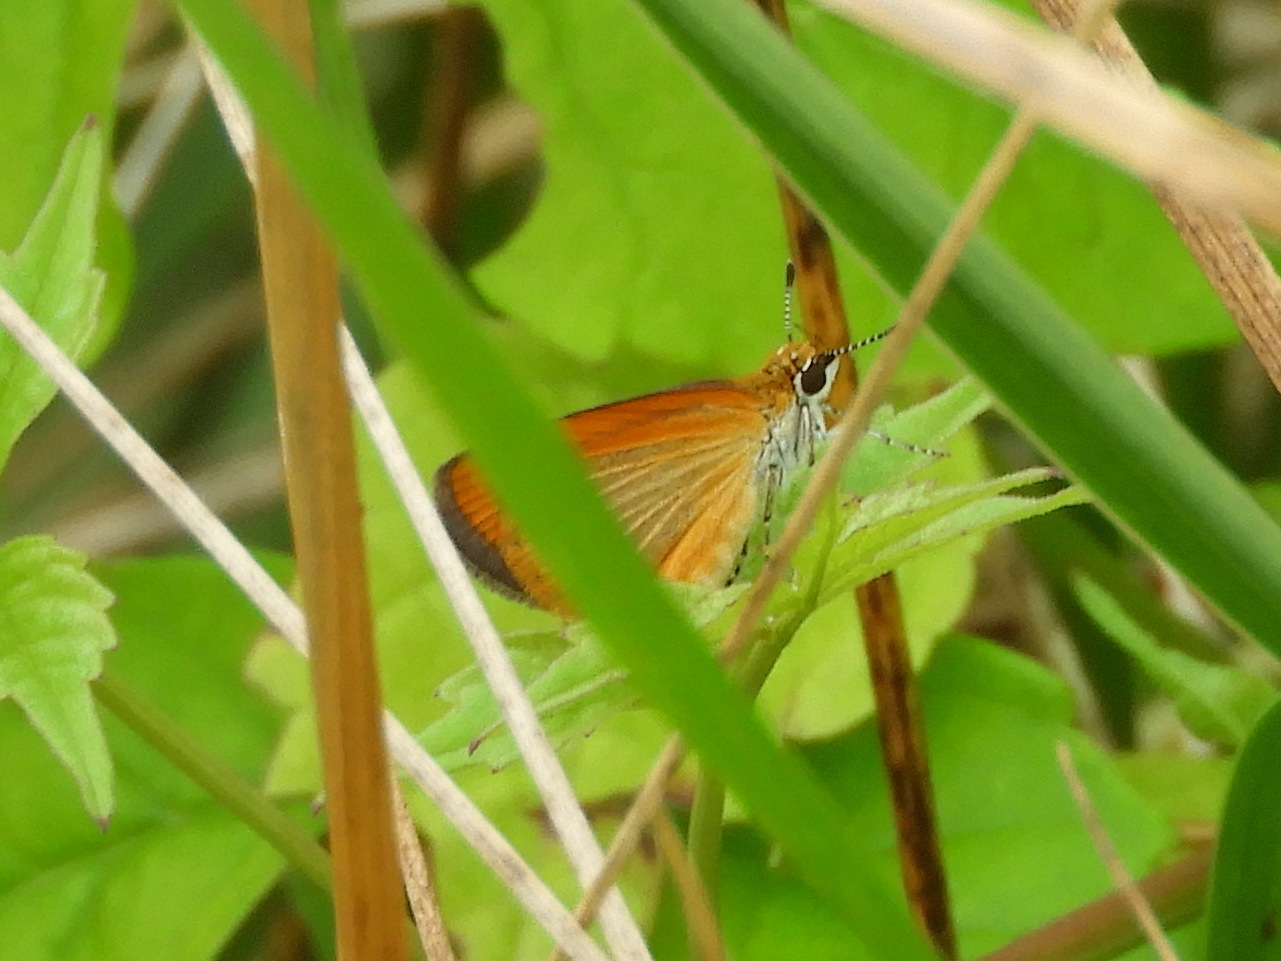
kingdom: Animalia
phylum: Arthropoda
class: Insecta
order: Lepidoptera
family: Hesperiidae
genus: Ancyloxypha
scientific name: Ancyloxypha numitor
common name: Least skipper
